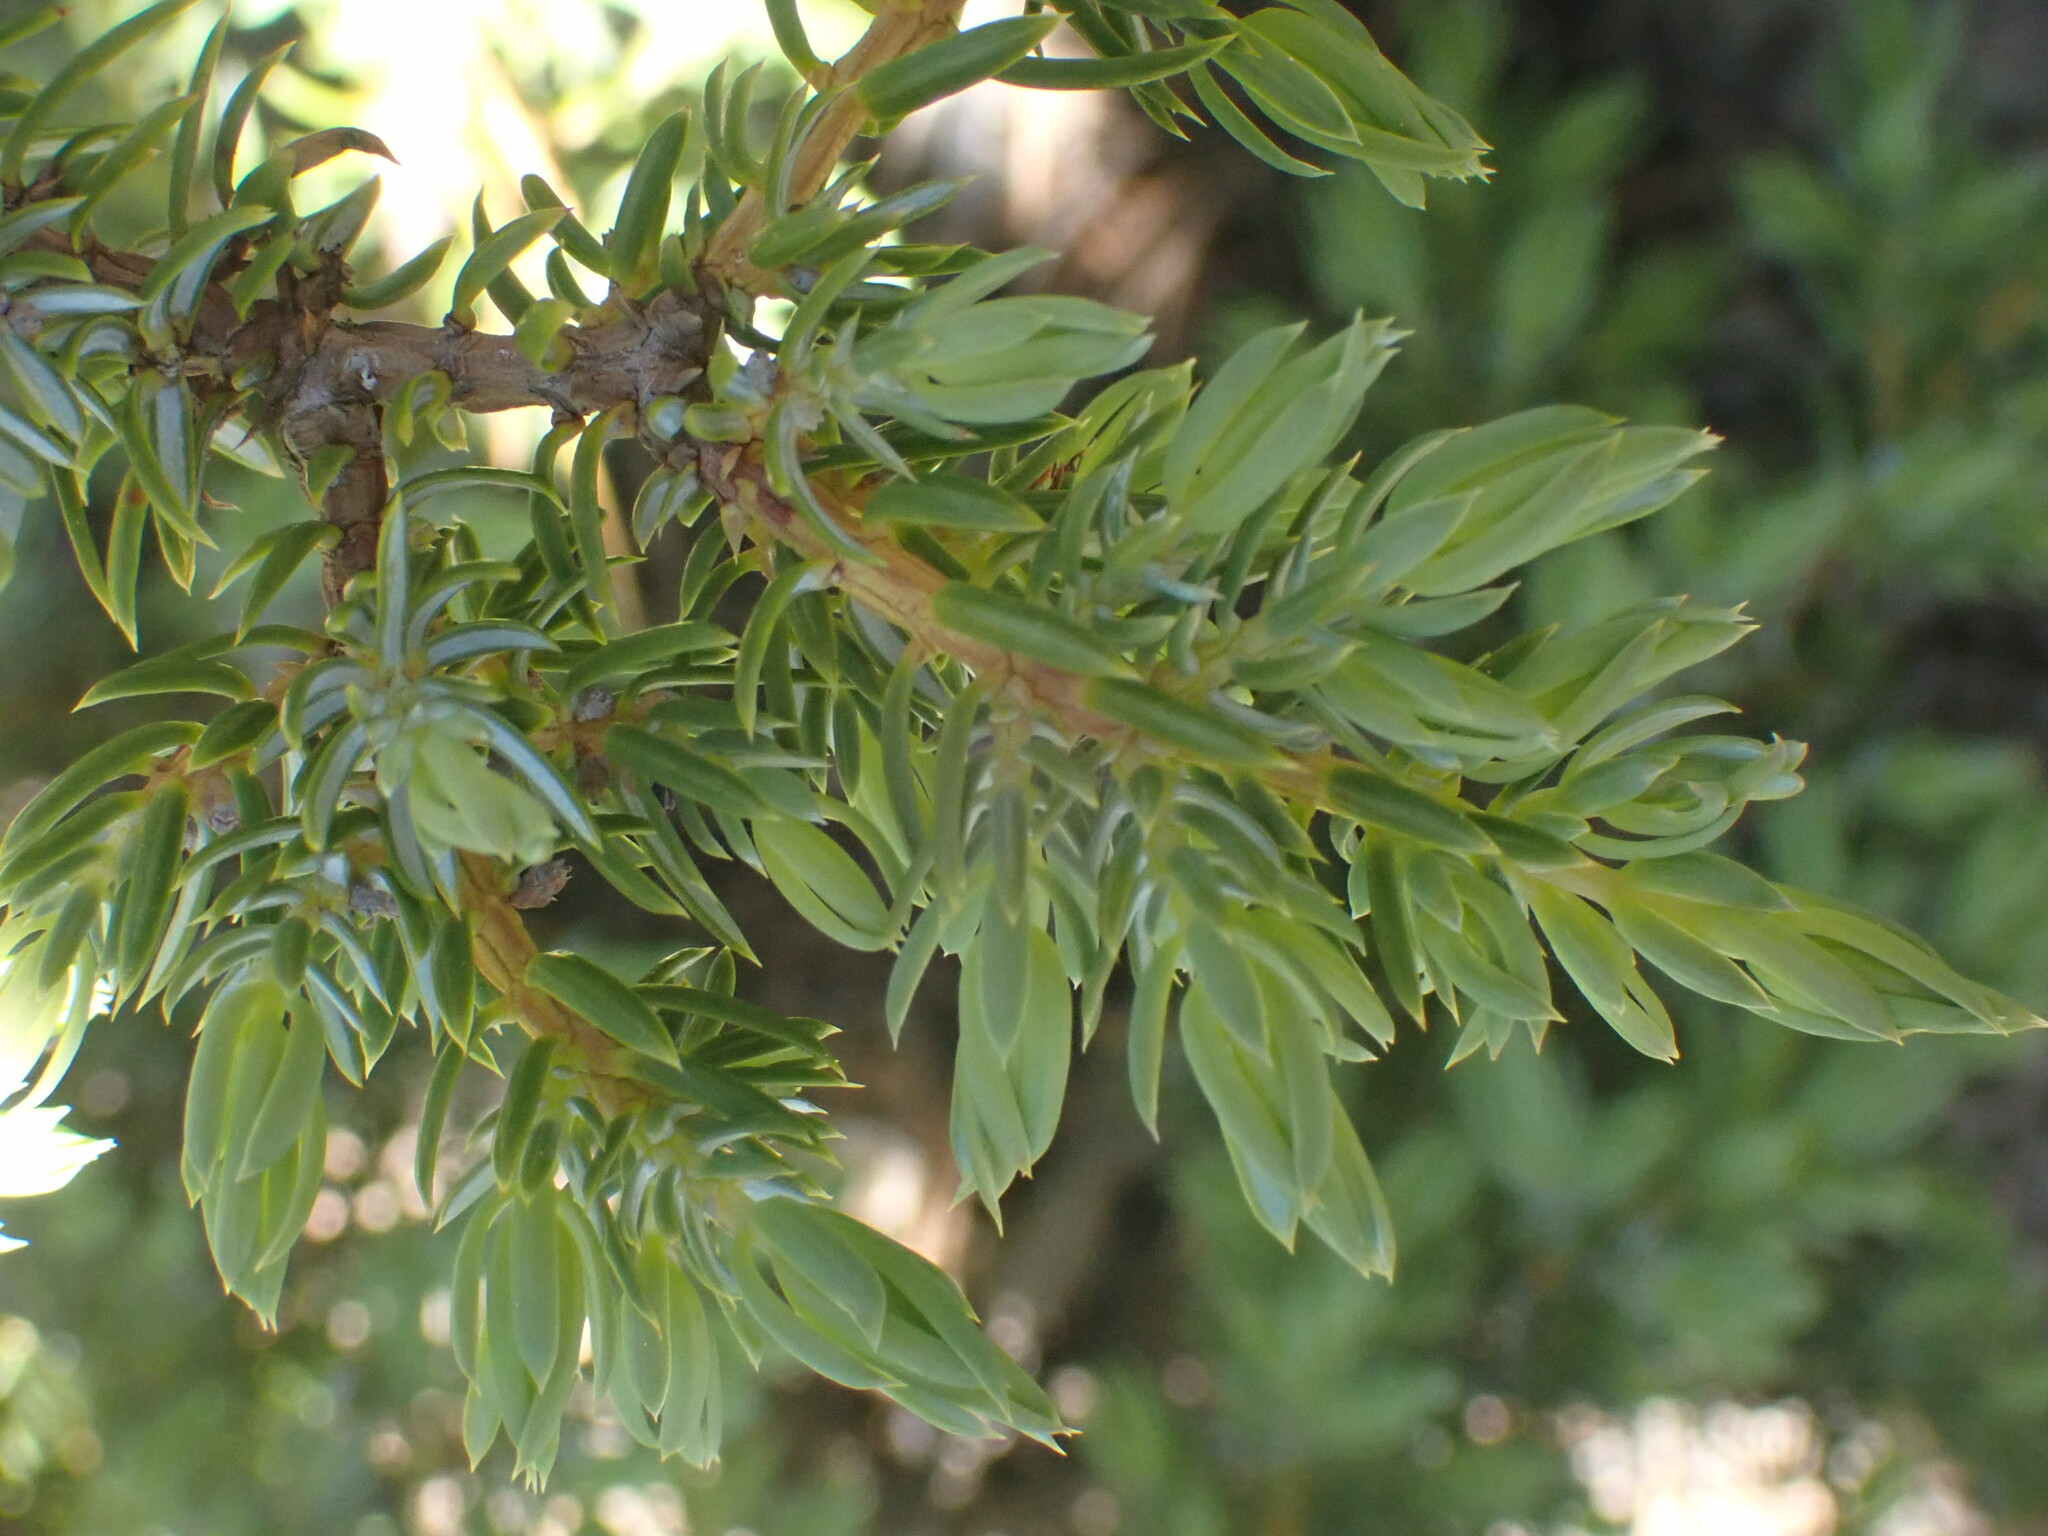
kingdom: Plantae
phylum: Tracheophyta
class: Pinopsida
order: Pinales
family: Cupressaceae
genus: Juniperus
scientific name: Juniperus communis
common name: Common juniper
